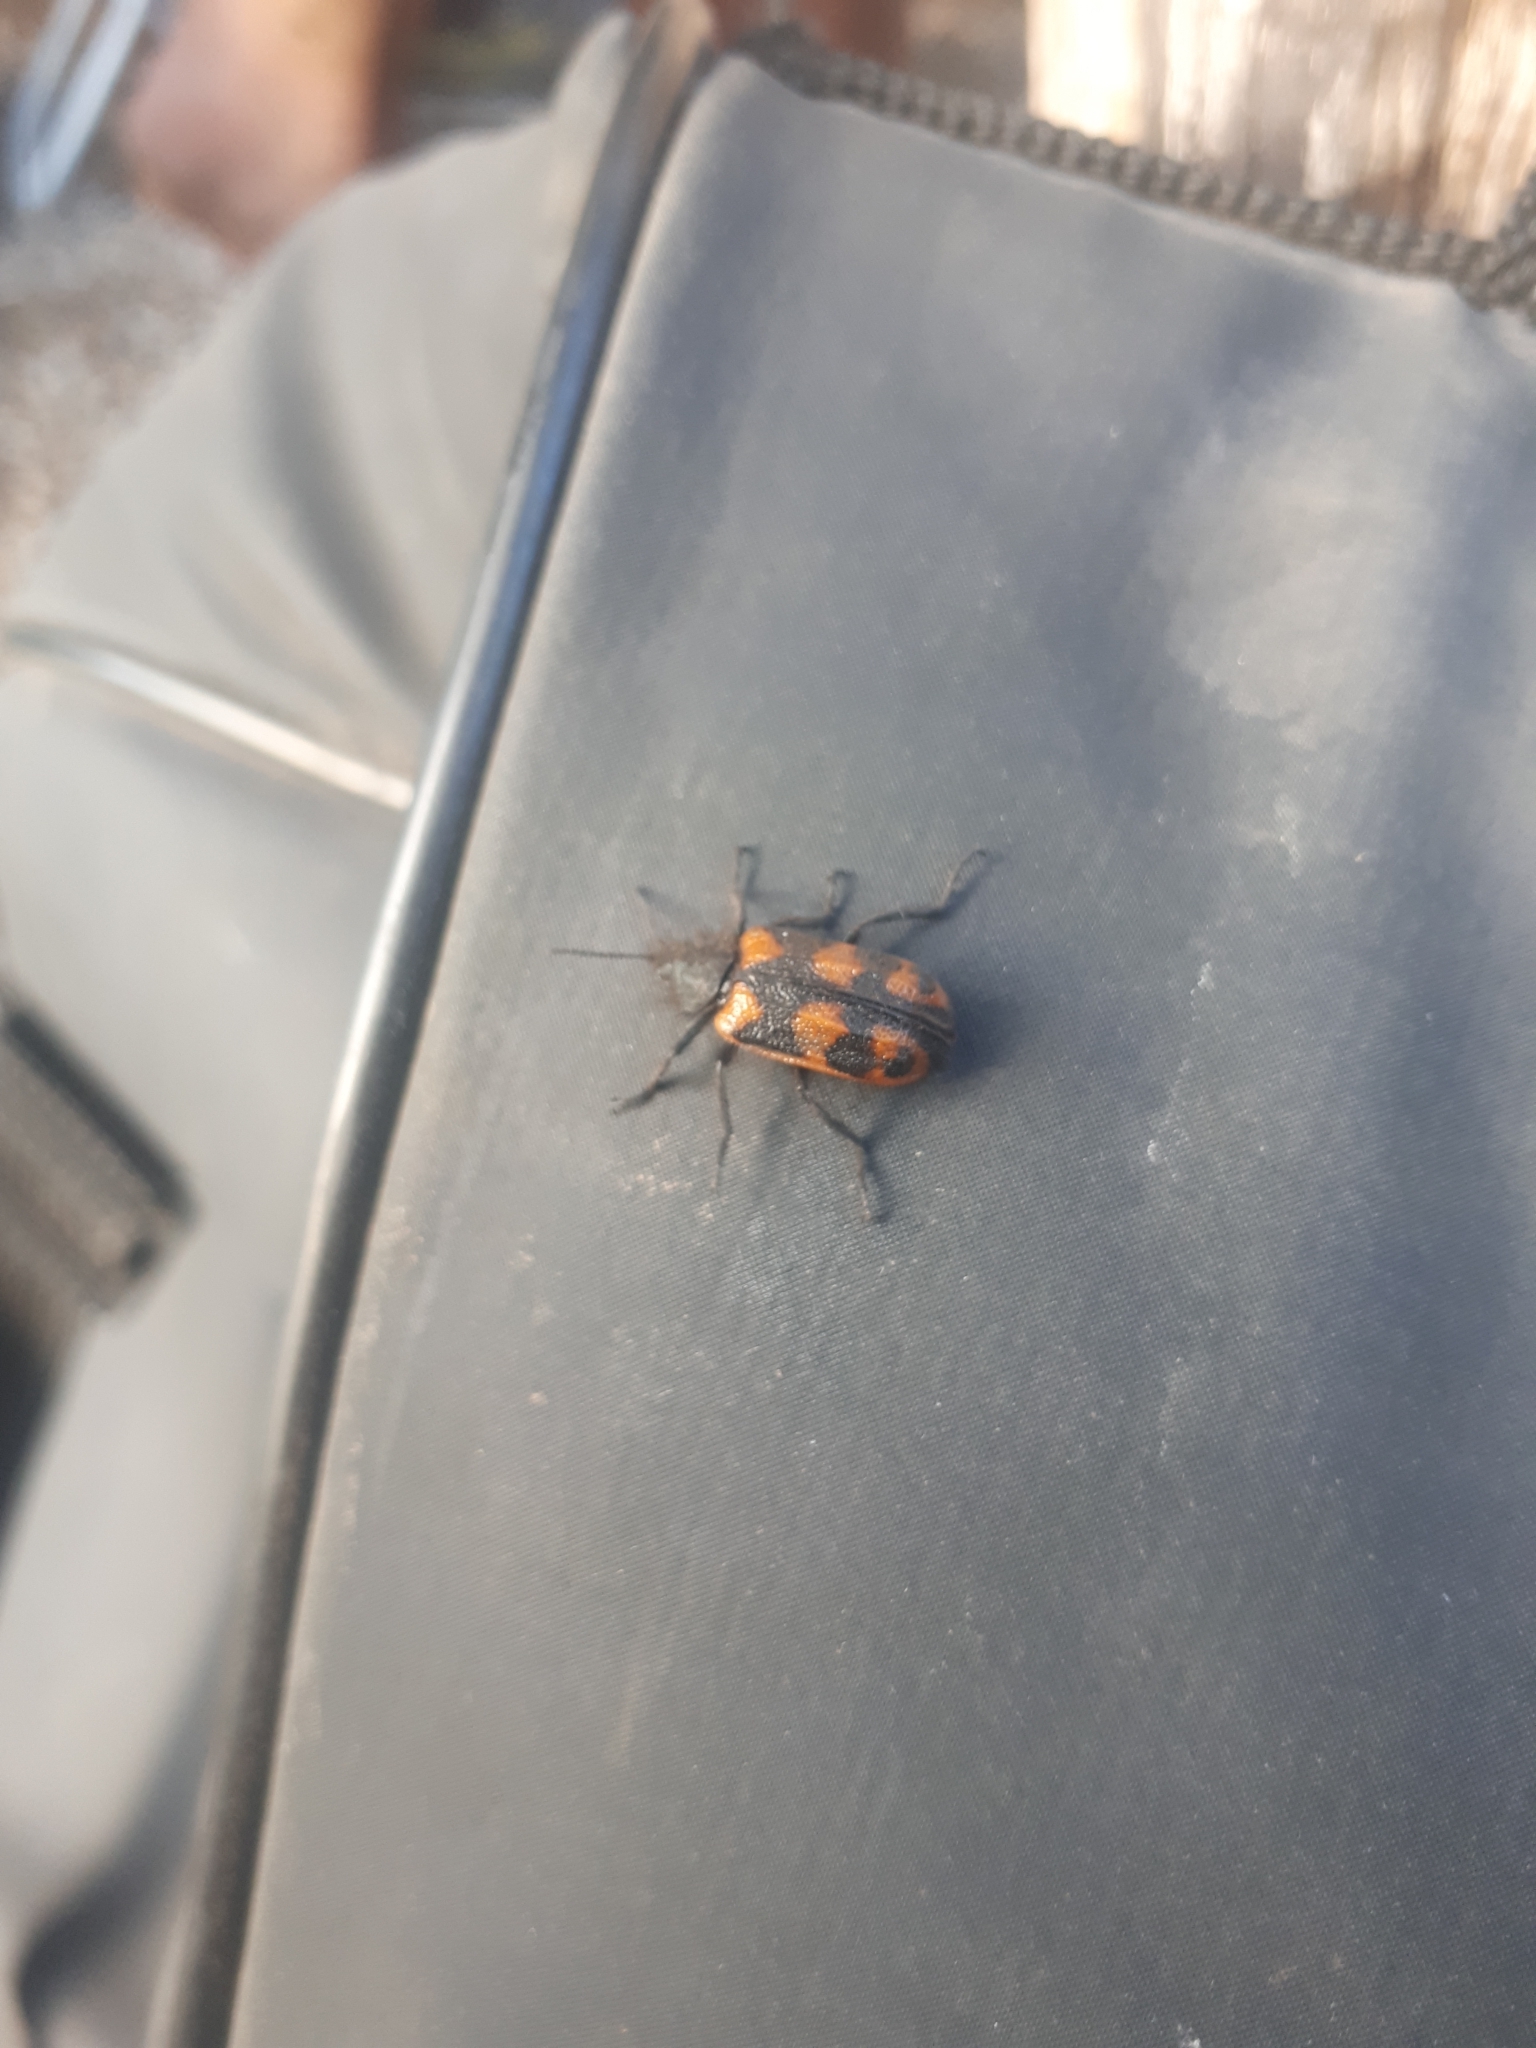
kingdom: Animalia
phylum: Arthropoda
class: Insecta
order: Coleoptera
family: Melyridae
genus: Astylus
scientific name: Astylus
